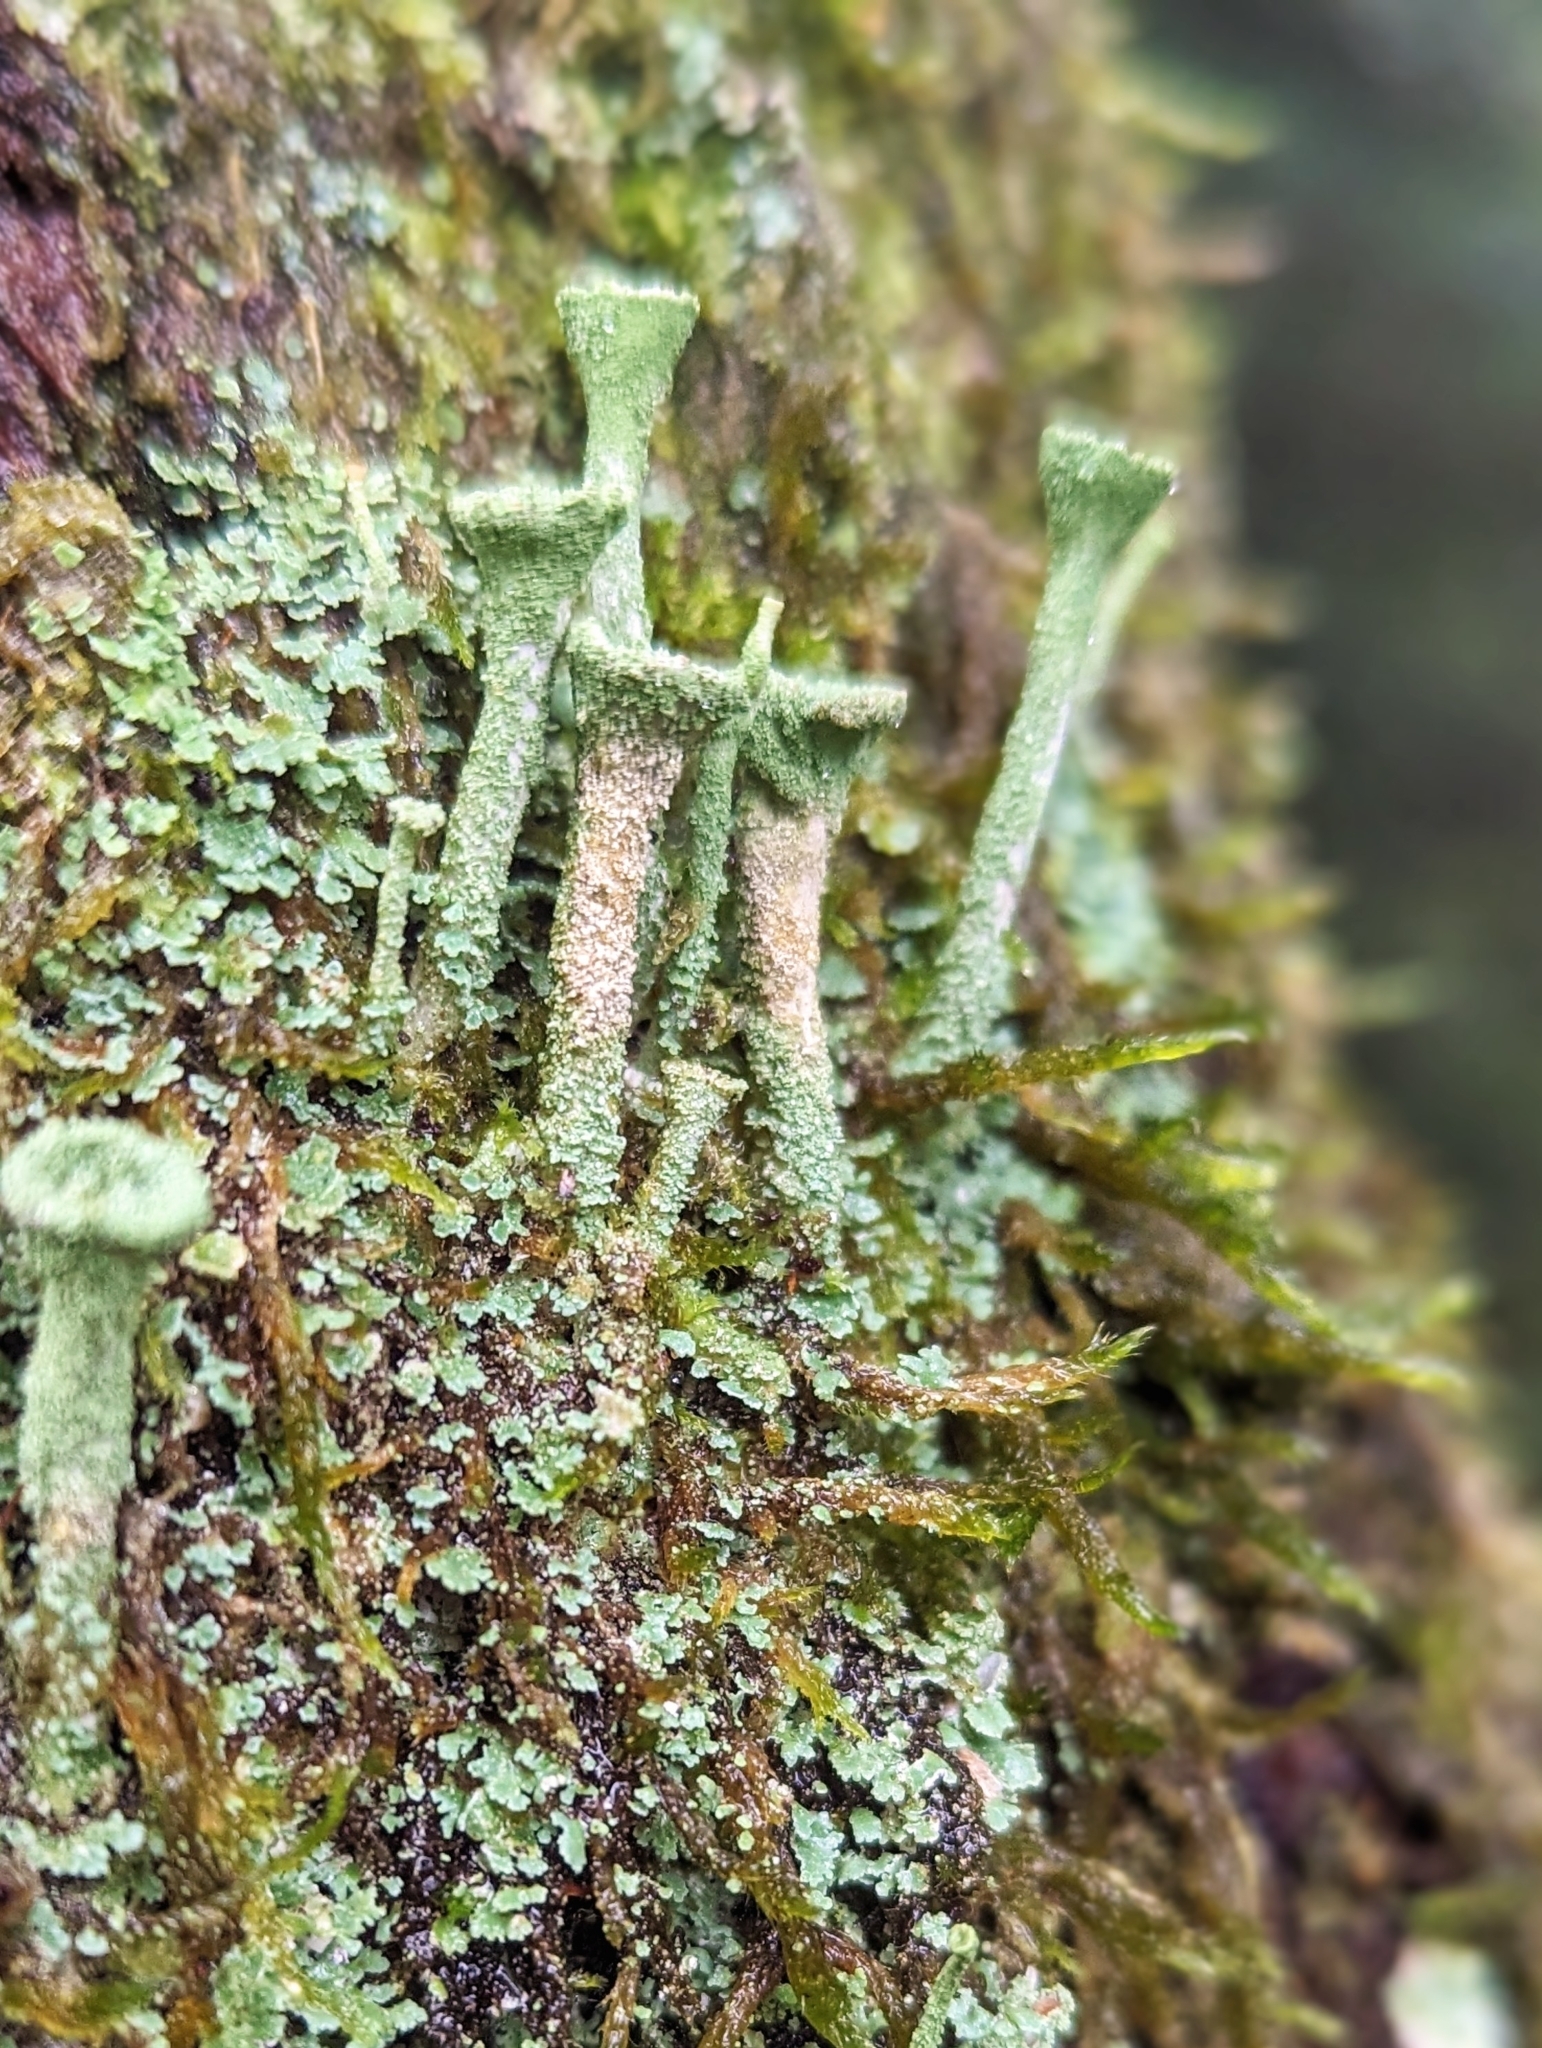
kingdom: Fungi
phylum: Ascomycota
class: Lecanoromycetes
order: Lecanorales
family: Cladoniaceae
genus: Cladonia
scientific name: Cladonia fimbriata
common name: Powdered trumpet lichen
